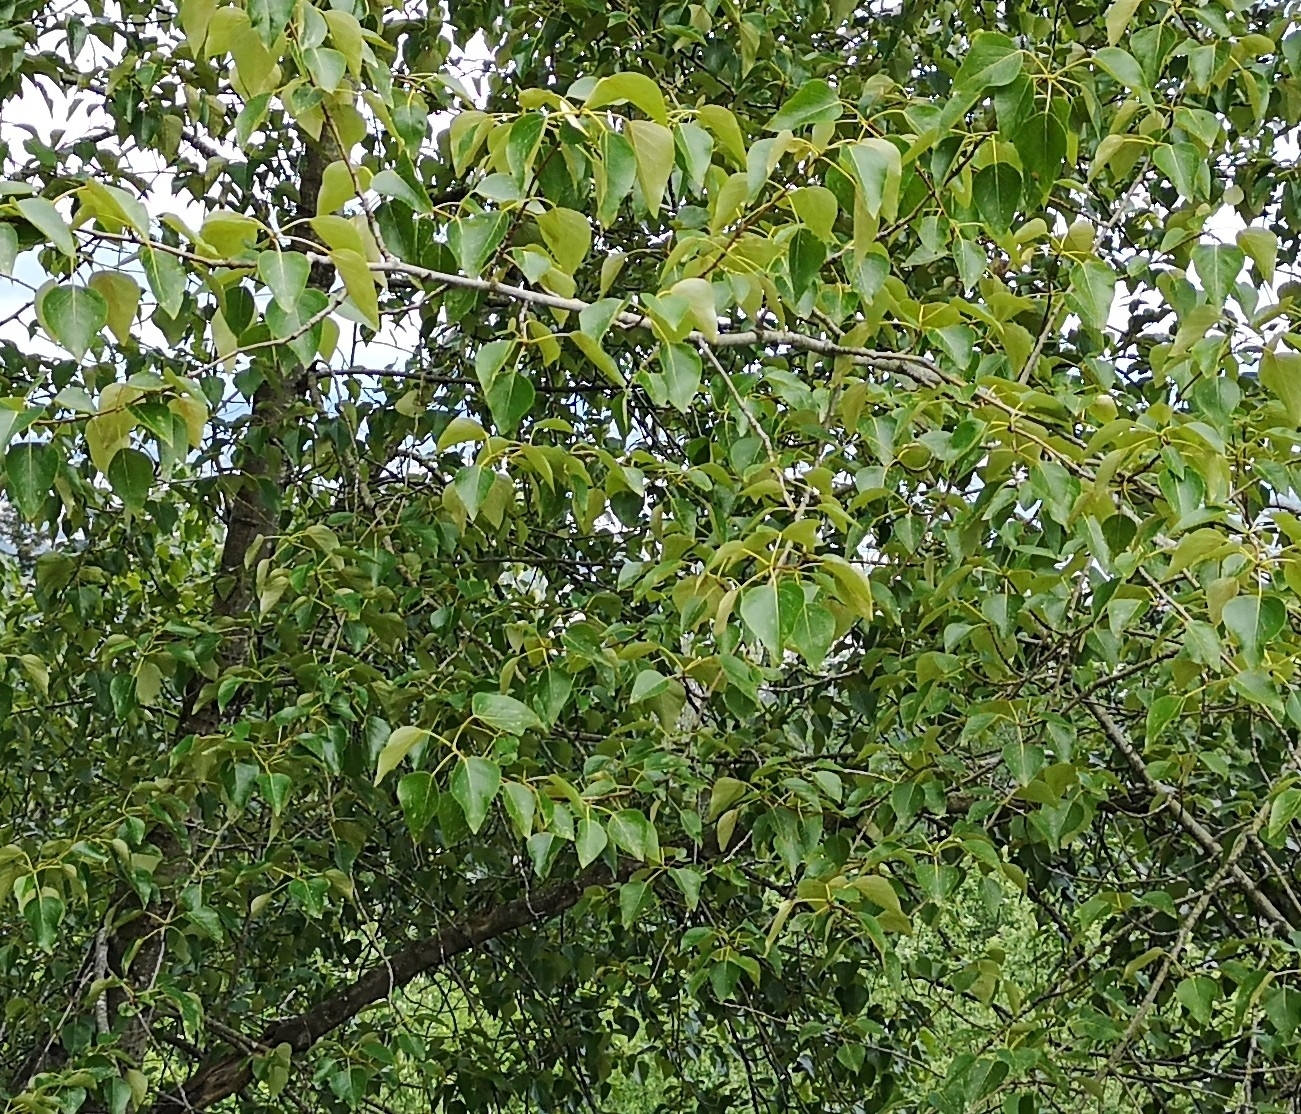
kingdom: Plantae
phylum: Tracheophyta
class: Magnoliopsida
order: Malpighiales
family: Salicaceae
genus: Populus
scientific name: Populus trichocarpa
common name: Black cottonwood
